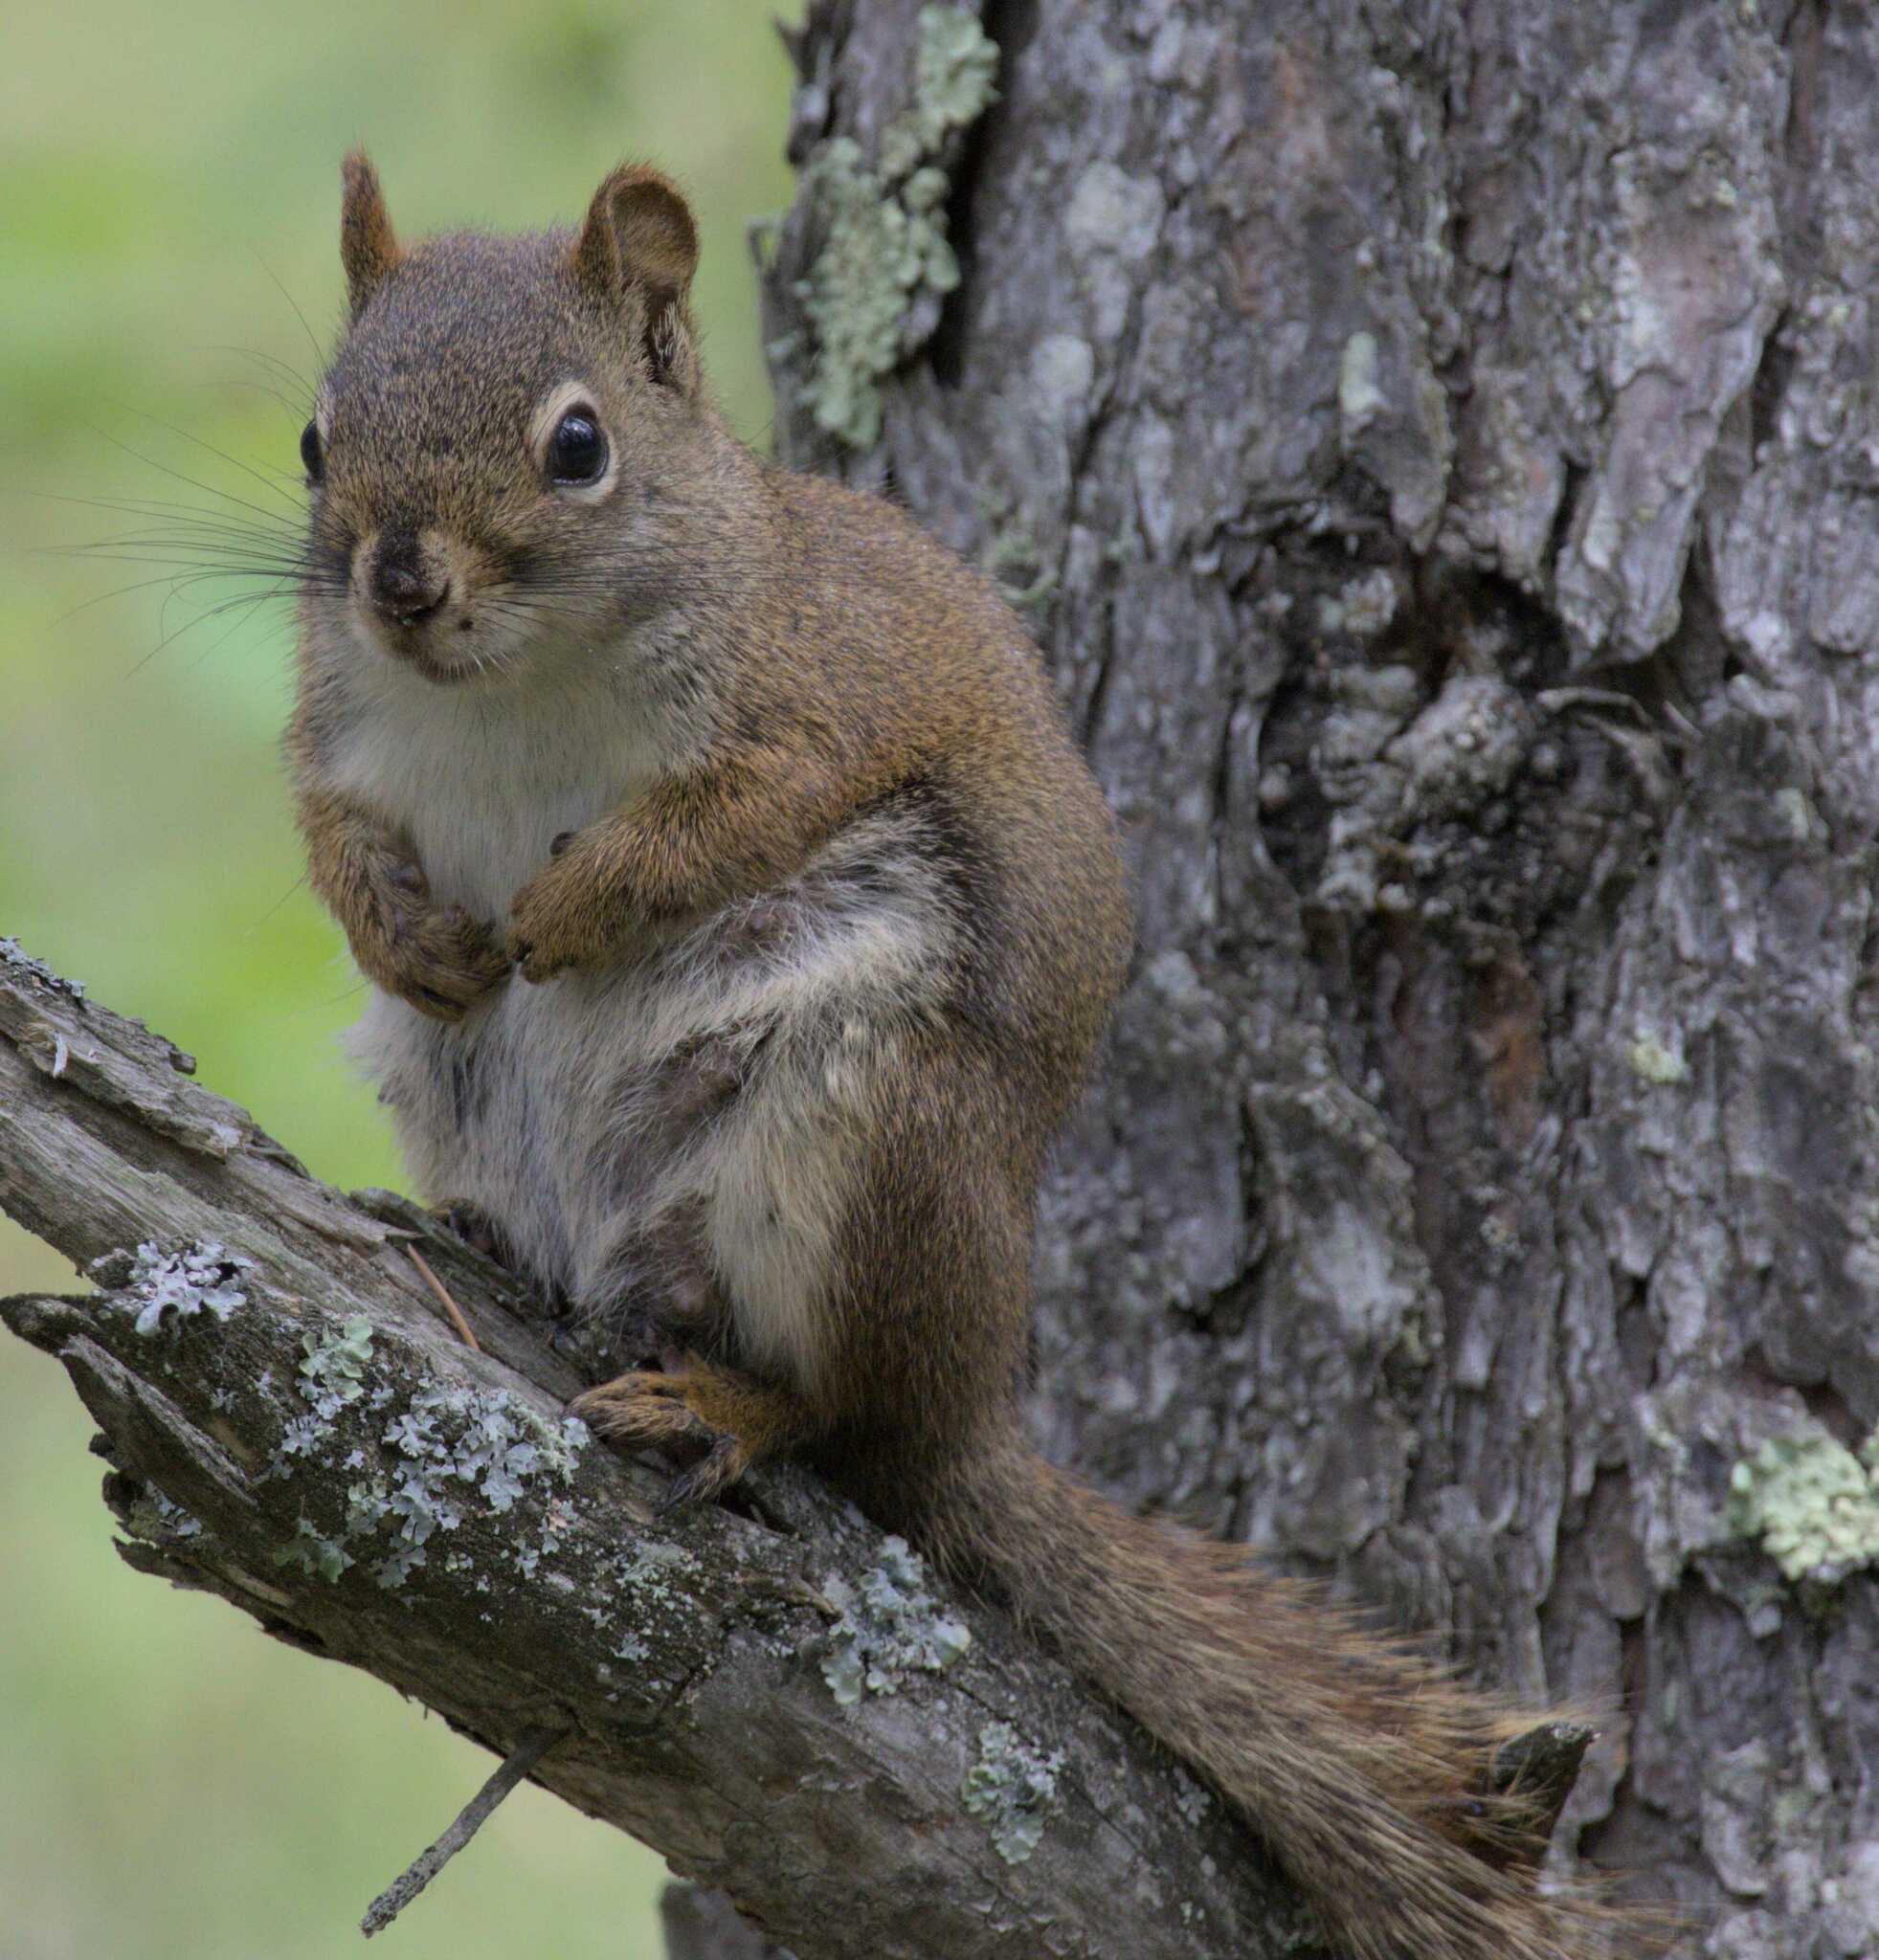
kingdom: Animalia
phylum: Chordata
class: Mammalia
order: Rodentia
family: Sciuridae
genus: Tamiasciurus
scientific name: Tamiasciurus hudsonicus
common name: Red squirrel
